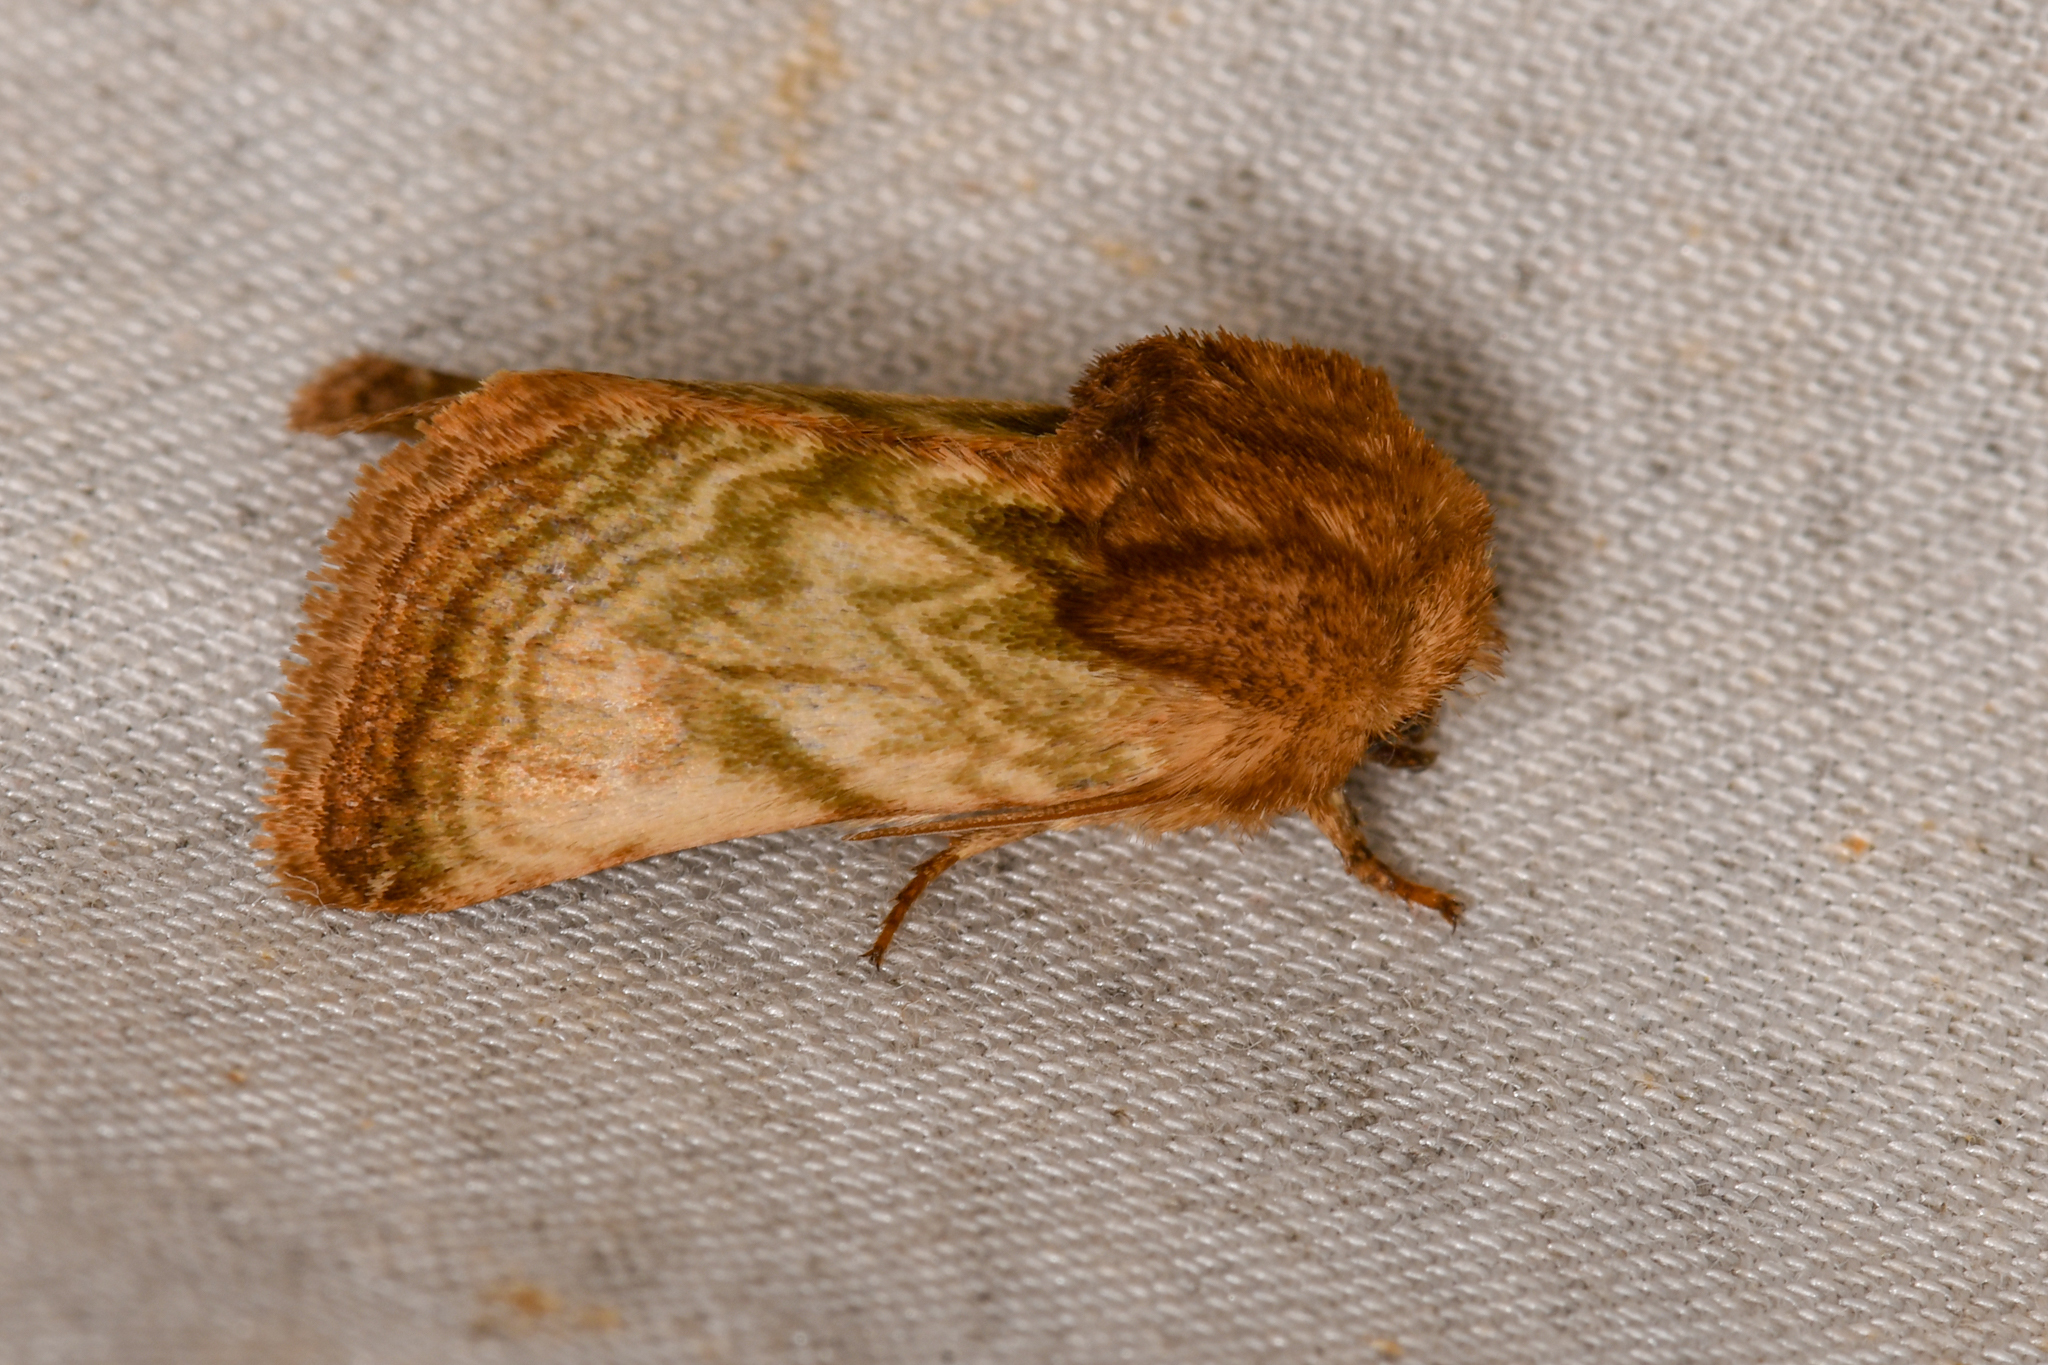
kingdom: Animalia
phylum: Arthropoda
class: Insecta
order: Lepidoptera
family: Noctuidae
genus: Nocloa
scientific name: Nocloa rivulosa
